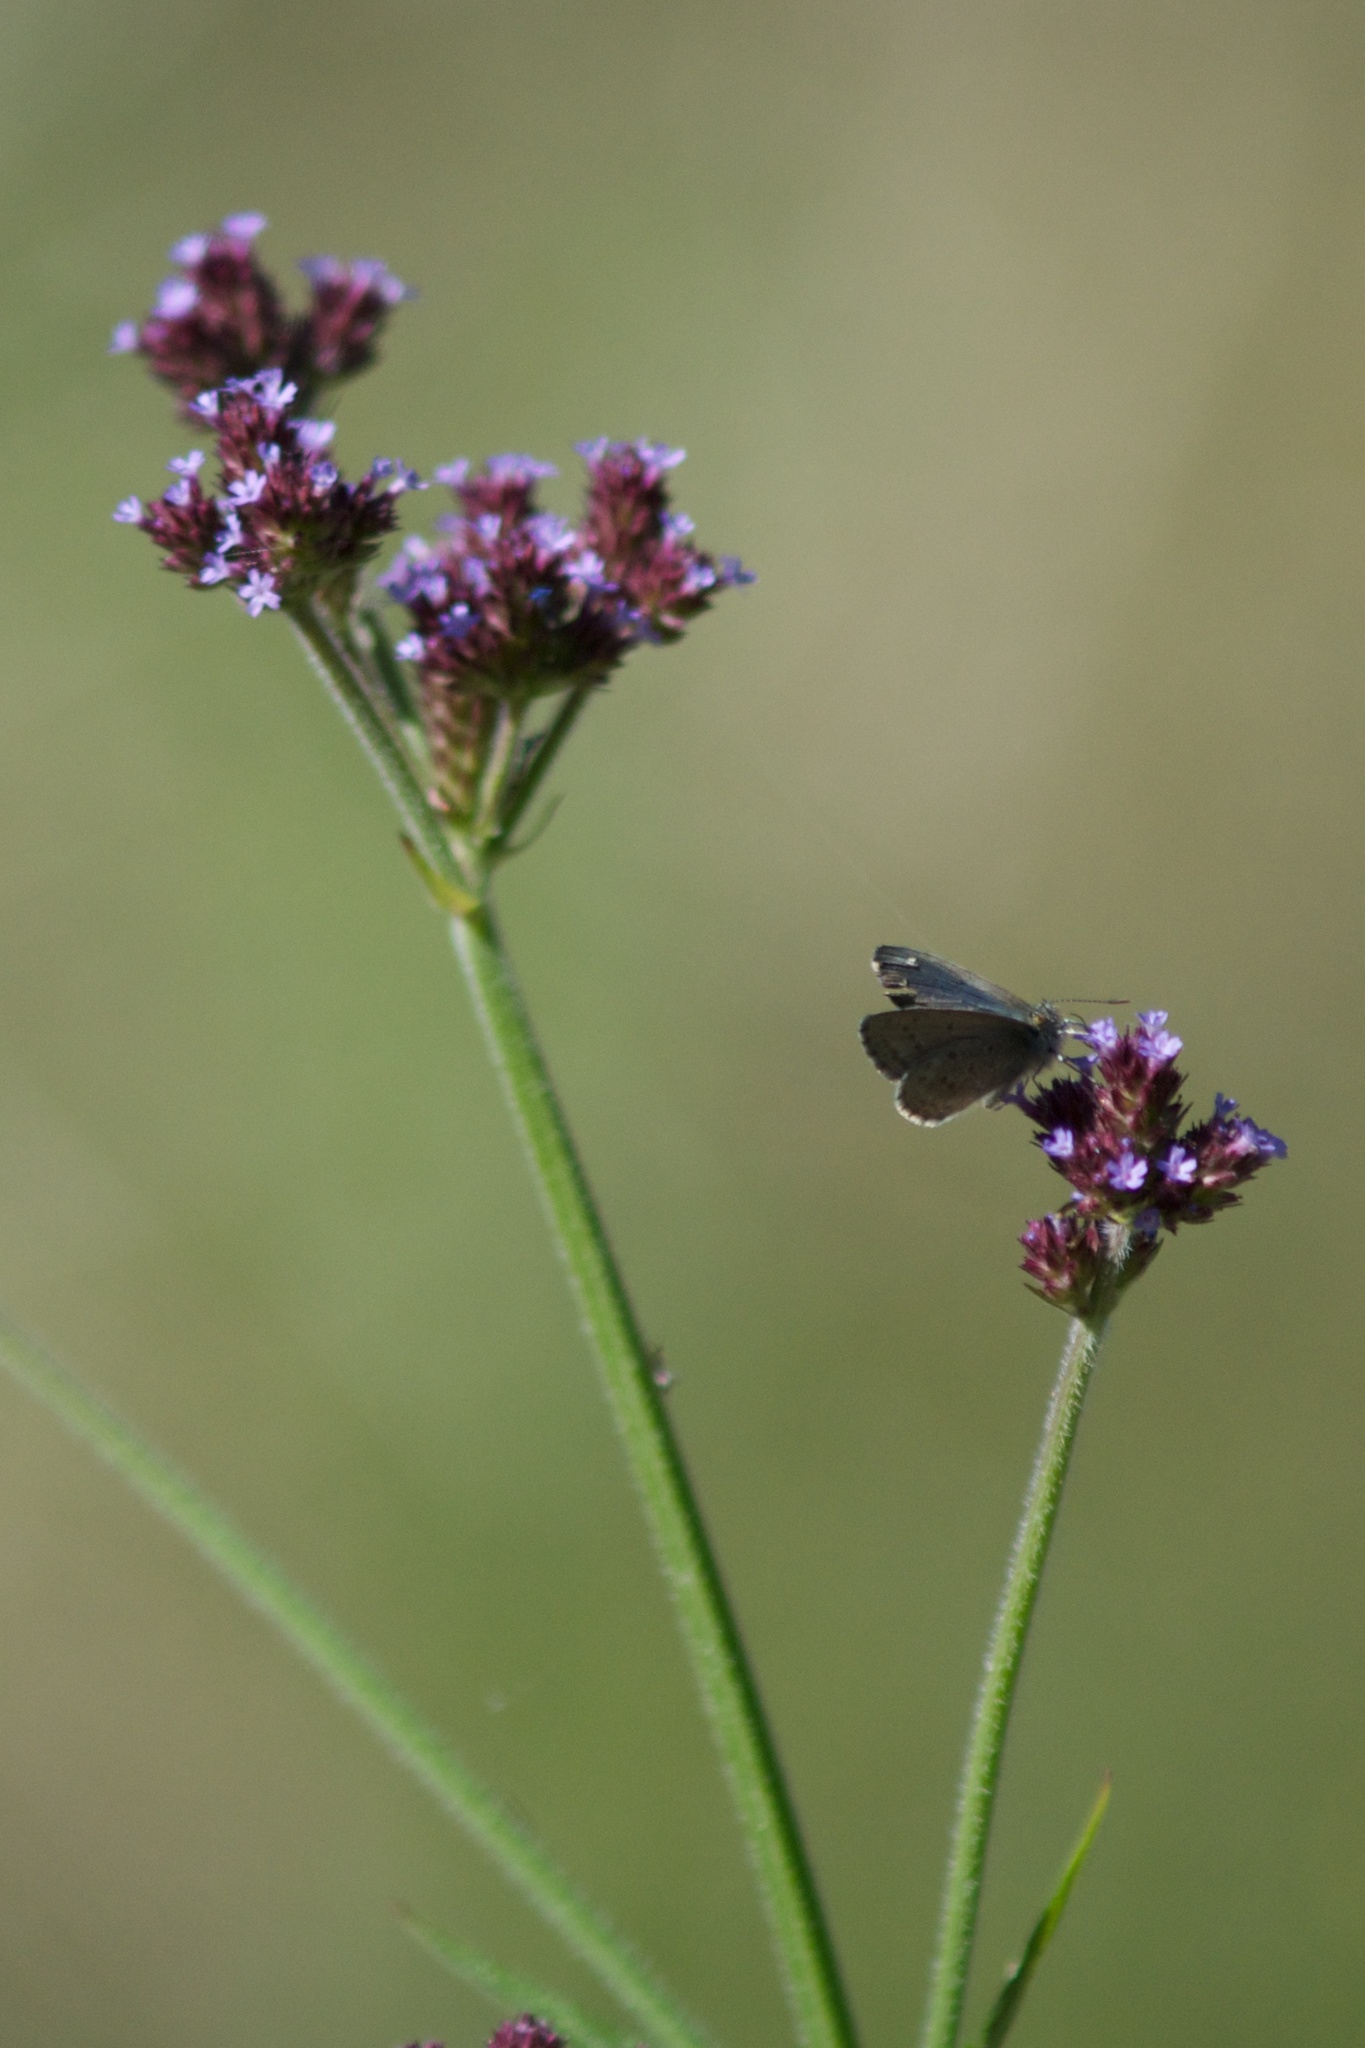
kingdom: Animalia
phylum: Arthropoda
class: Insecta
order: Lepidoptera
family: Lycaenidae
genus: Zizina
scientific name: Zizina labradus
